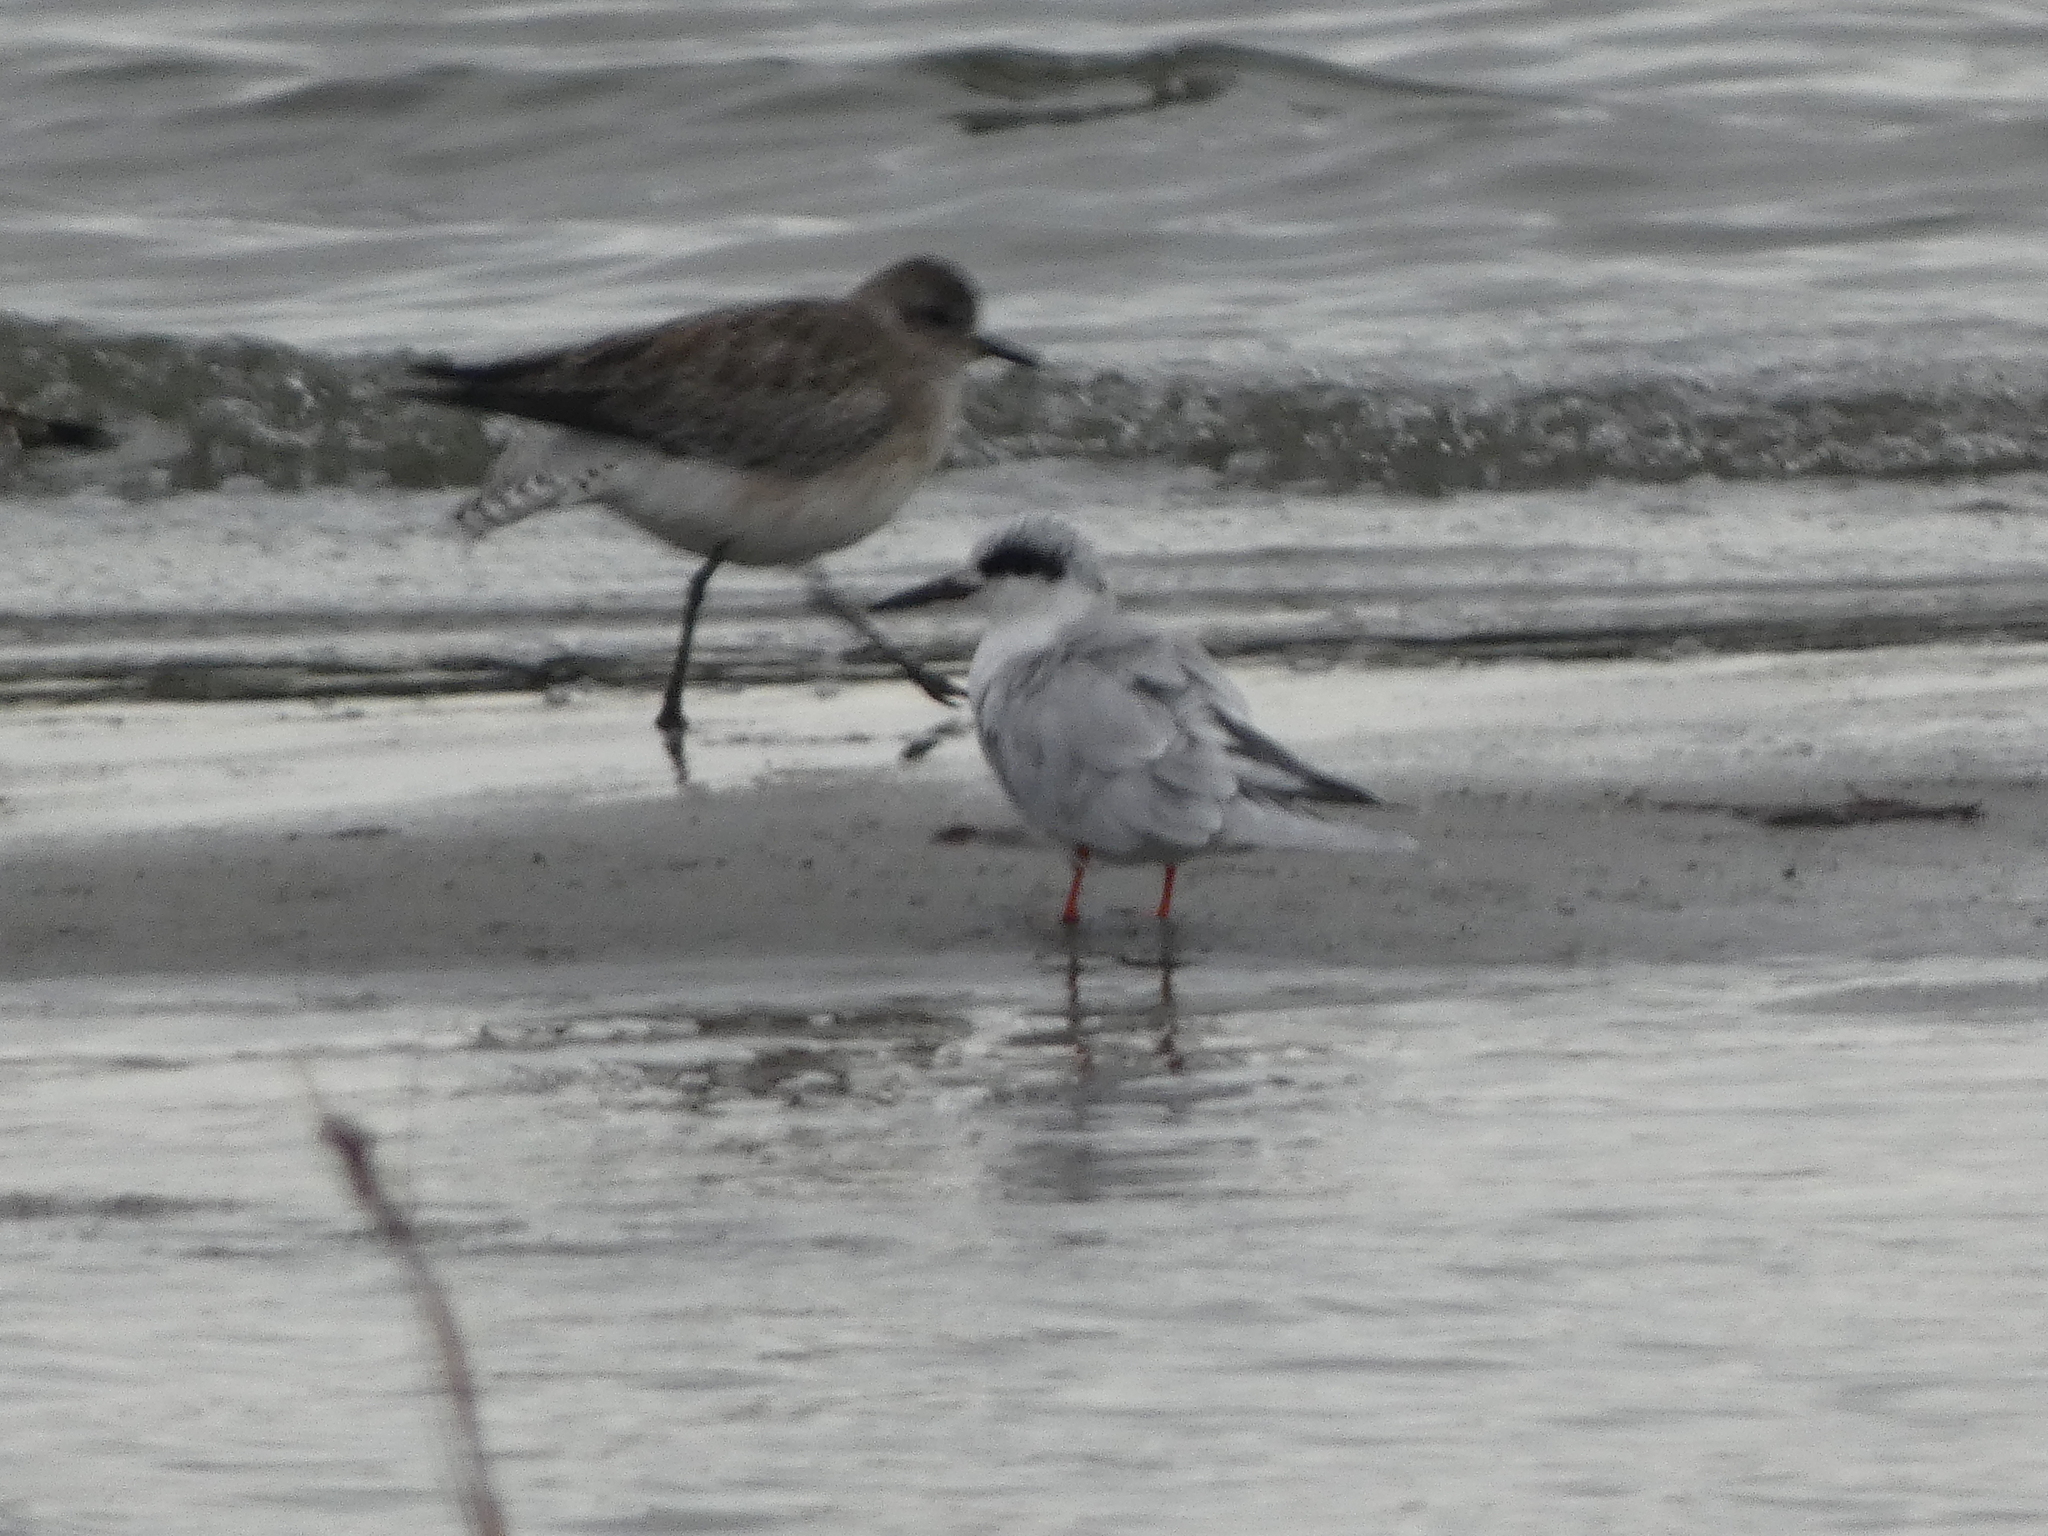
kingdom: Animalia
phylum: Chordata
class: Aves
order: Charadriiformes
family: Laridae
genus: Sterna
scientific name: Sterna forsteri
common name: Forster's tern
